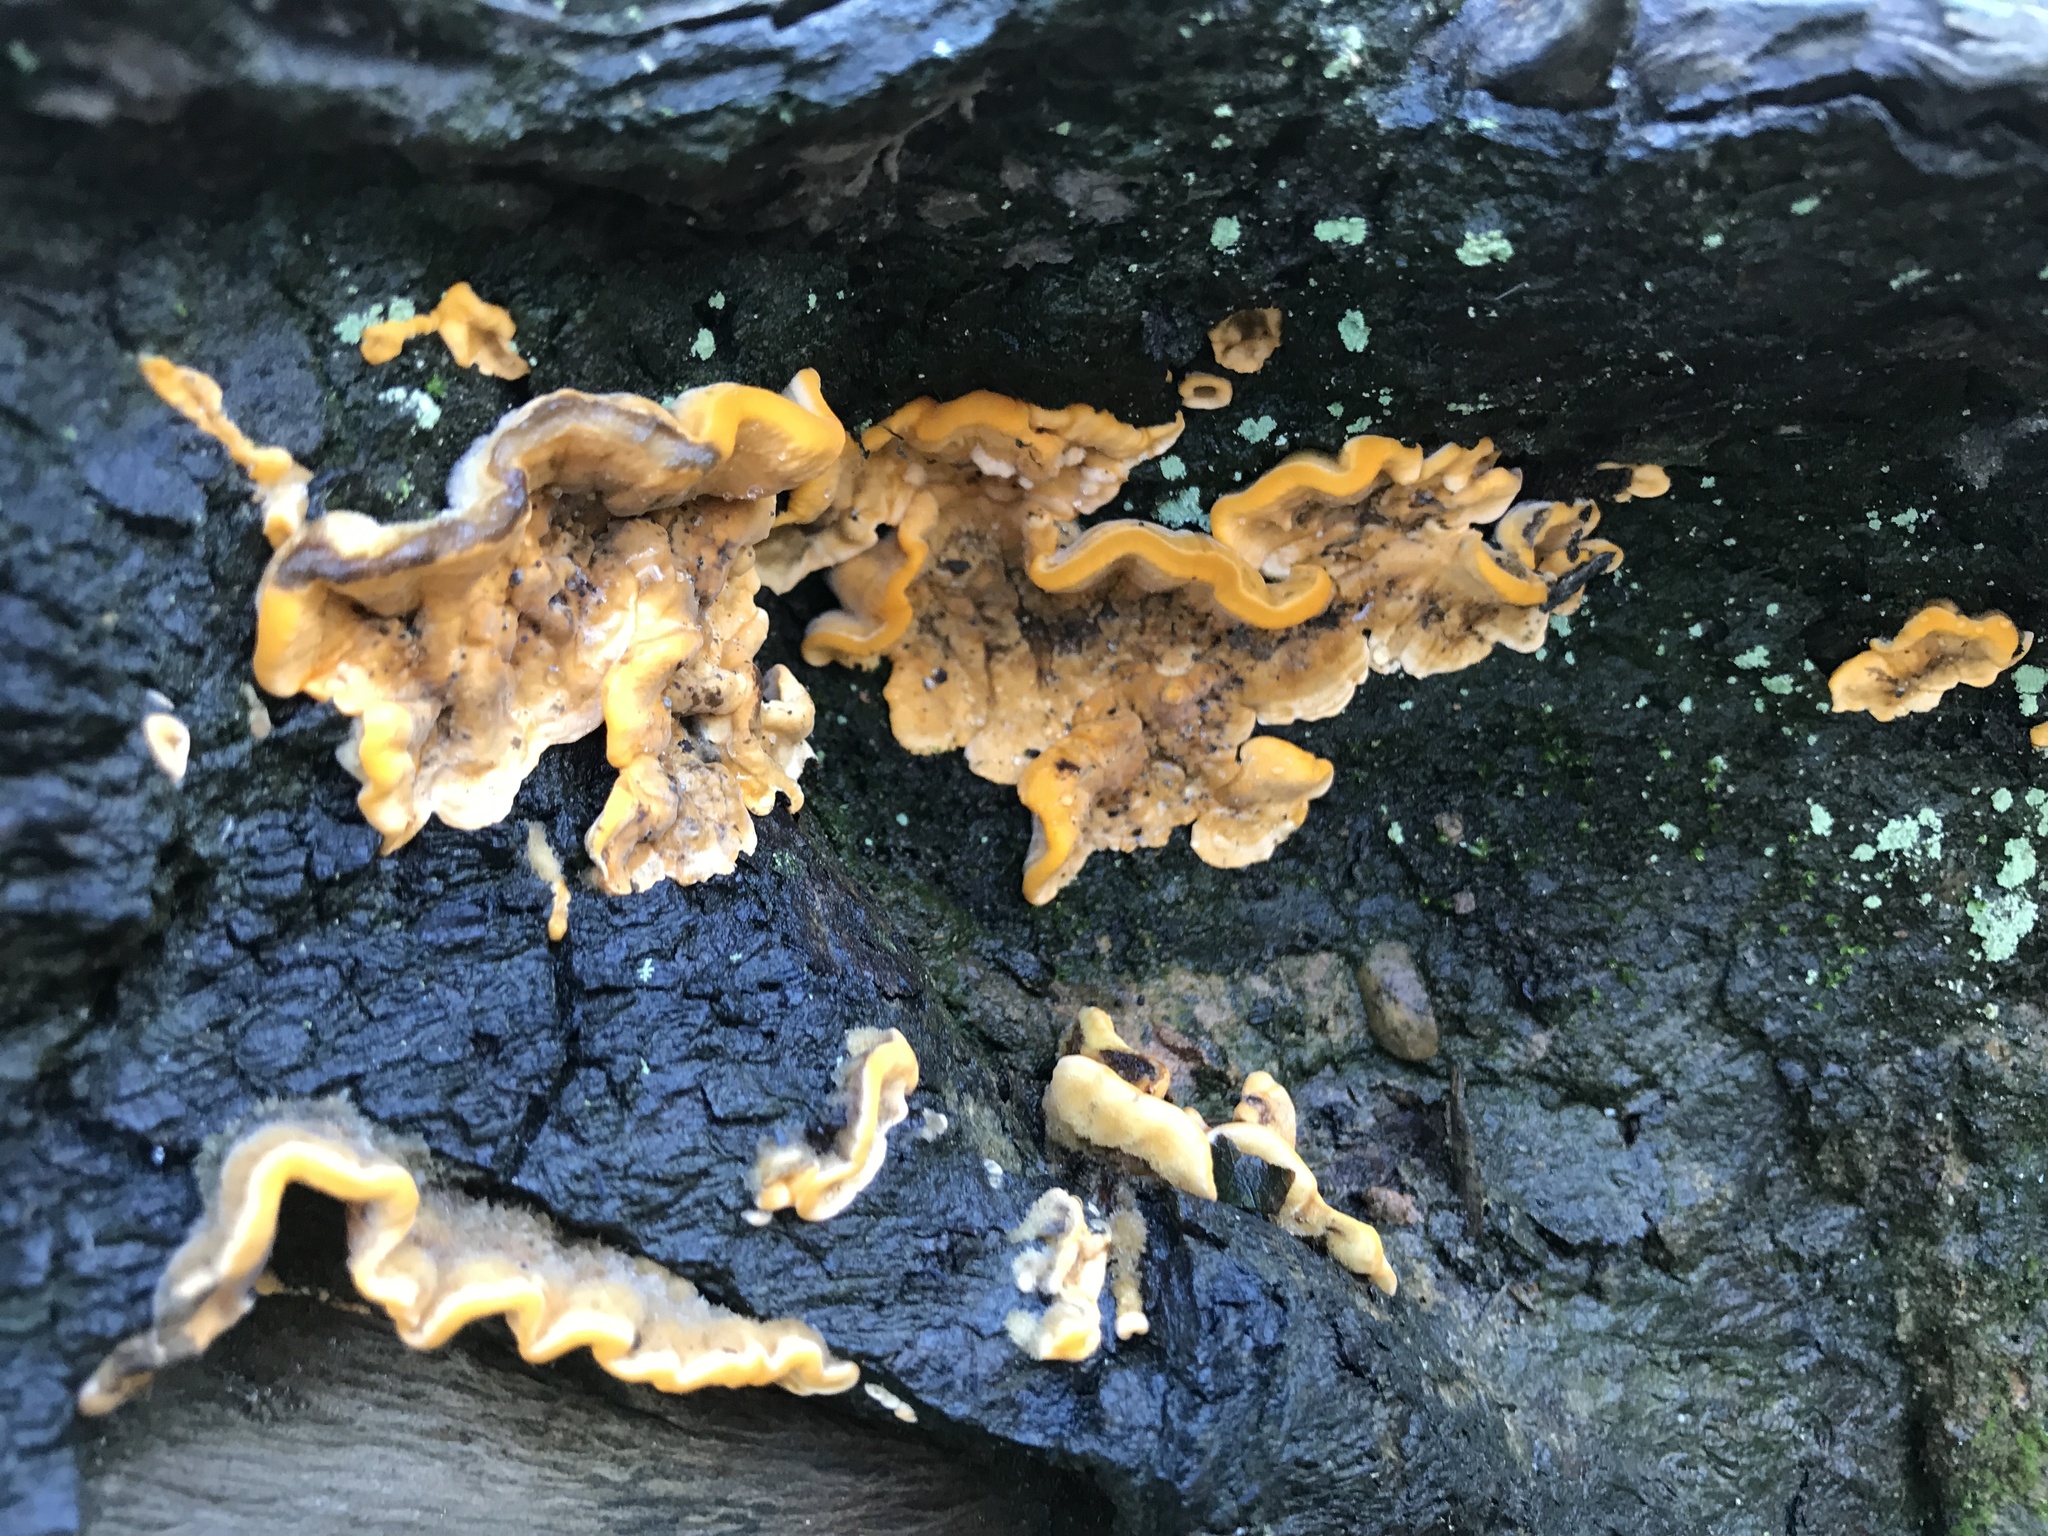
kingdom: Fungi
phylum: Basidiomycota
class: Agaricomycetes
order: Russulales
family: Stereaceae
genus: Stereum
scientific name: Stereum hirsutum
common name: Hairy curtain crust
